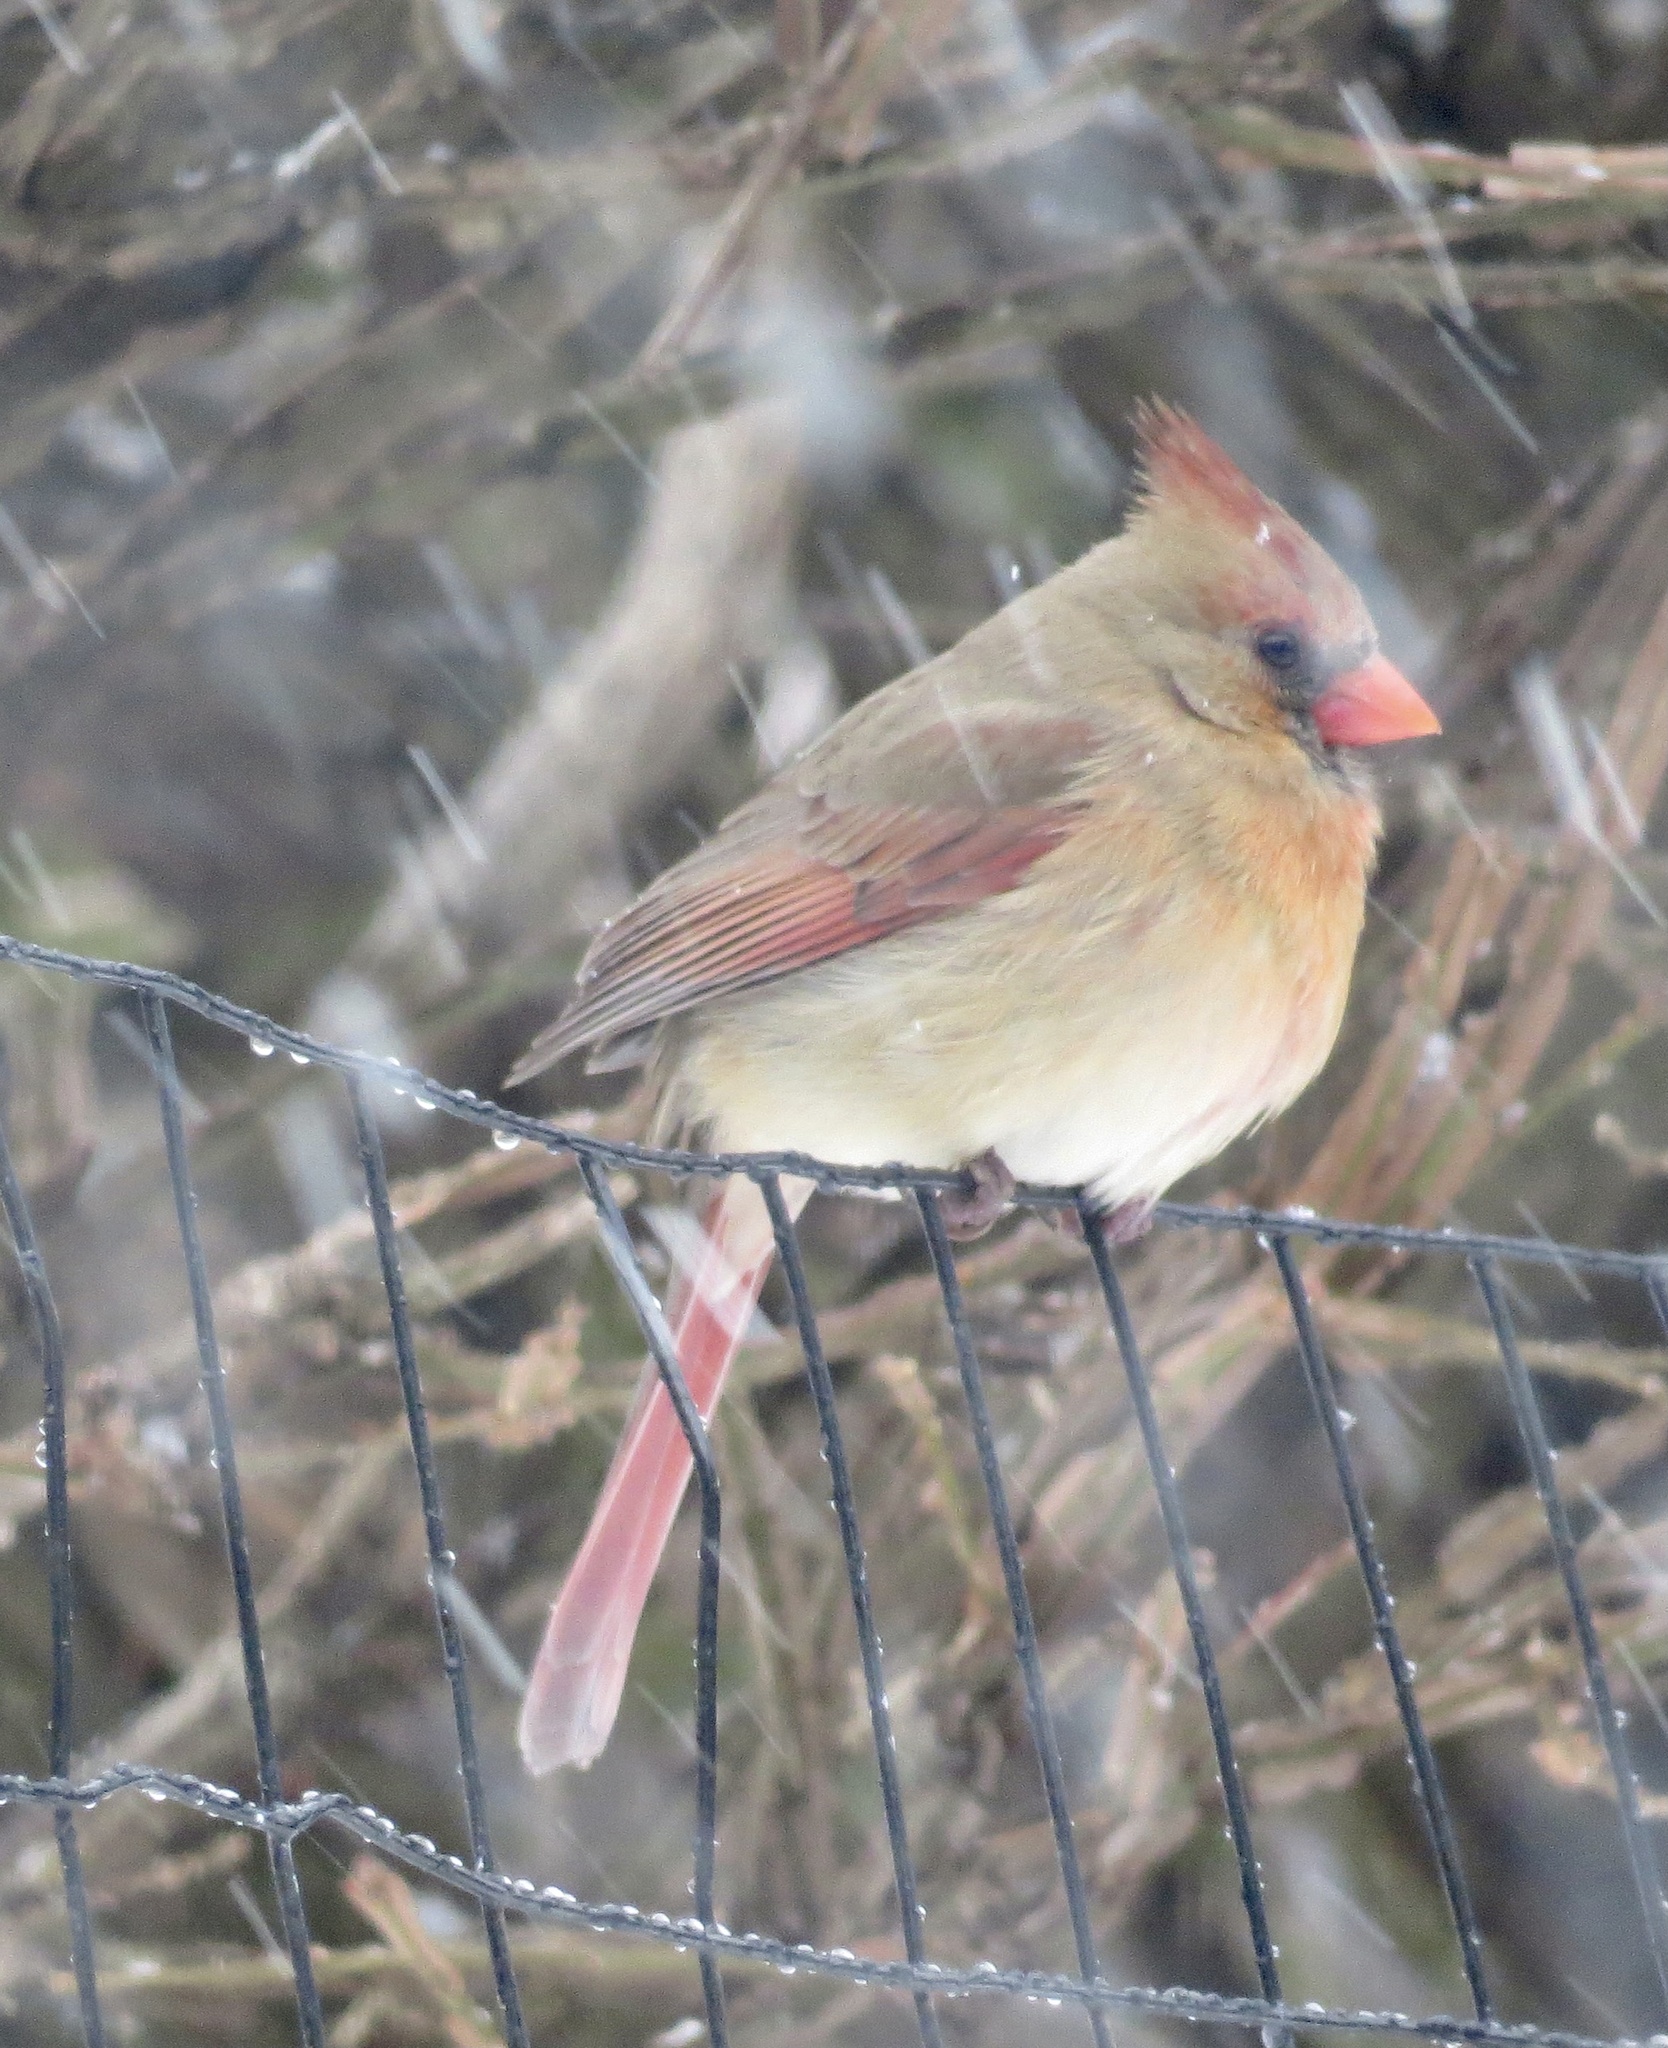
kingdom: Animalia
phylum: Chordata
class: Aves
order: Passeriformes
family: Cardinalidae
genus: Cardinalis
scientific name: Cardinalis cardinalis
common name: Northern cardinal
